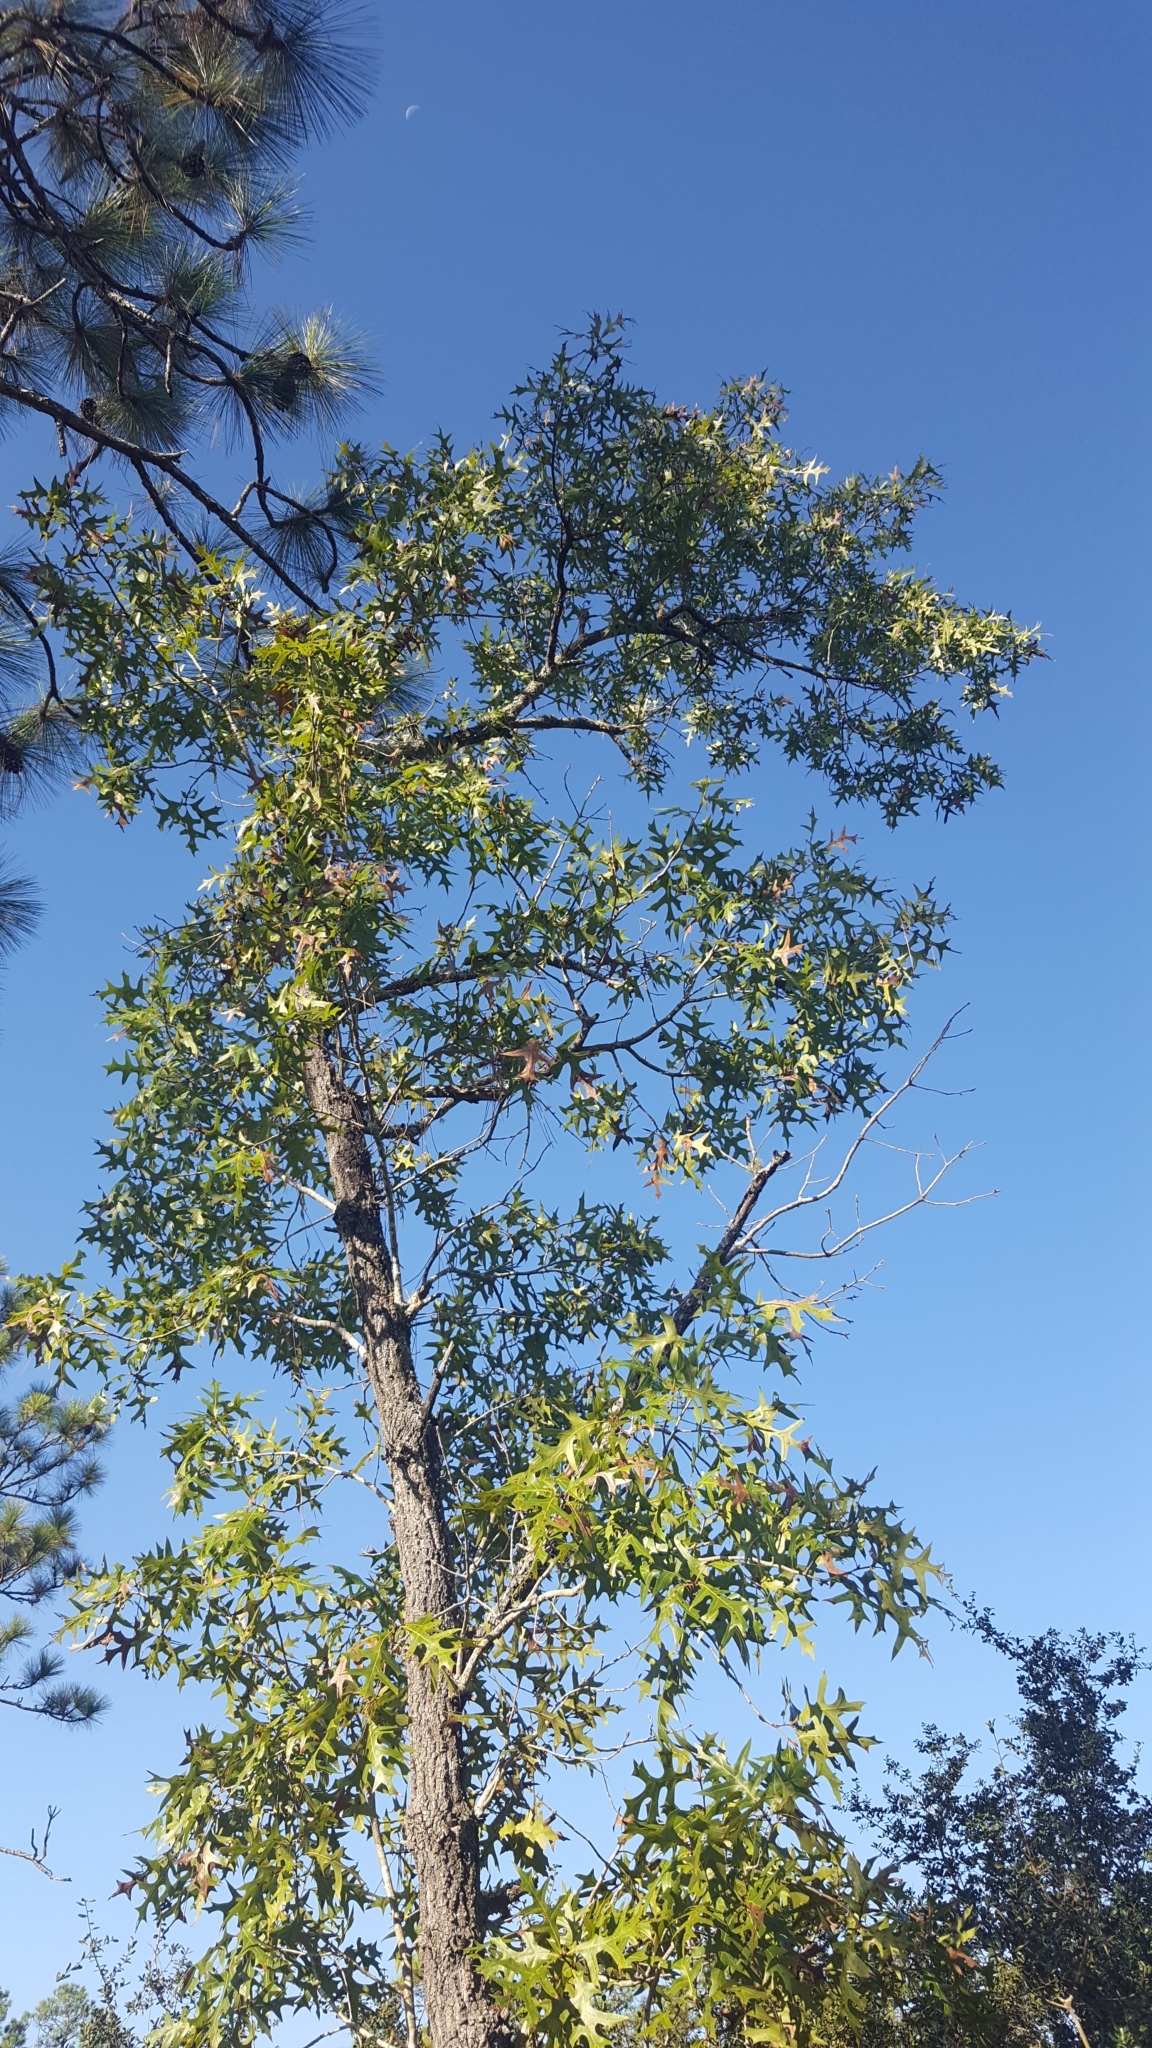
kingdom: Plantae
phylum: Tracheophyta
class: Magnoliopsida
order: Fagales
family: Fagaceae
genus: Quercus
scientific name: Quercus laevis
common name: Turkey oak
